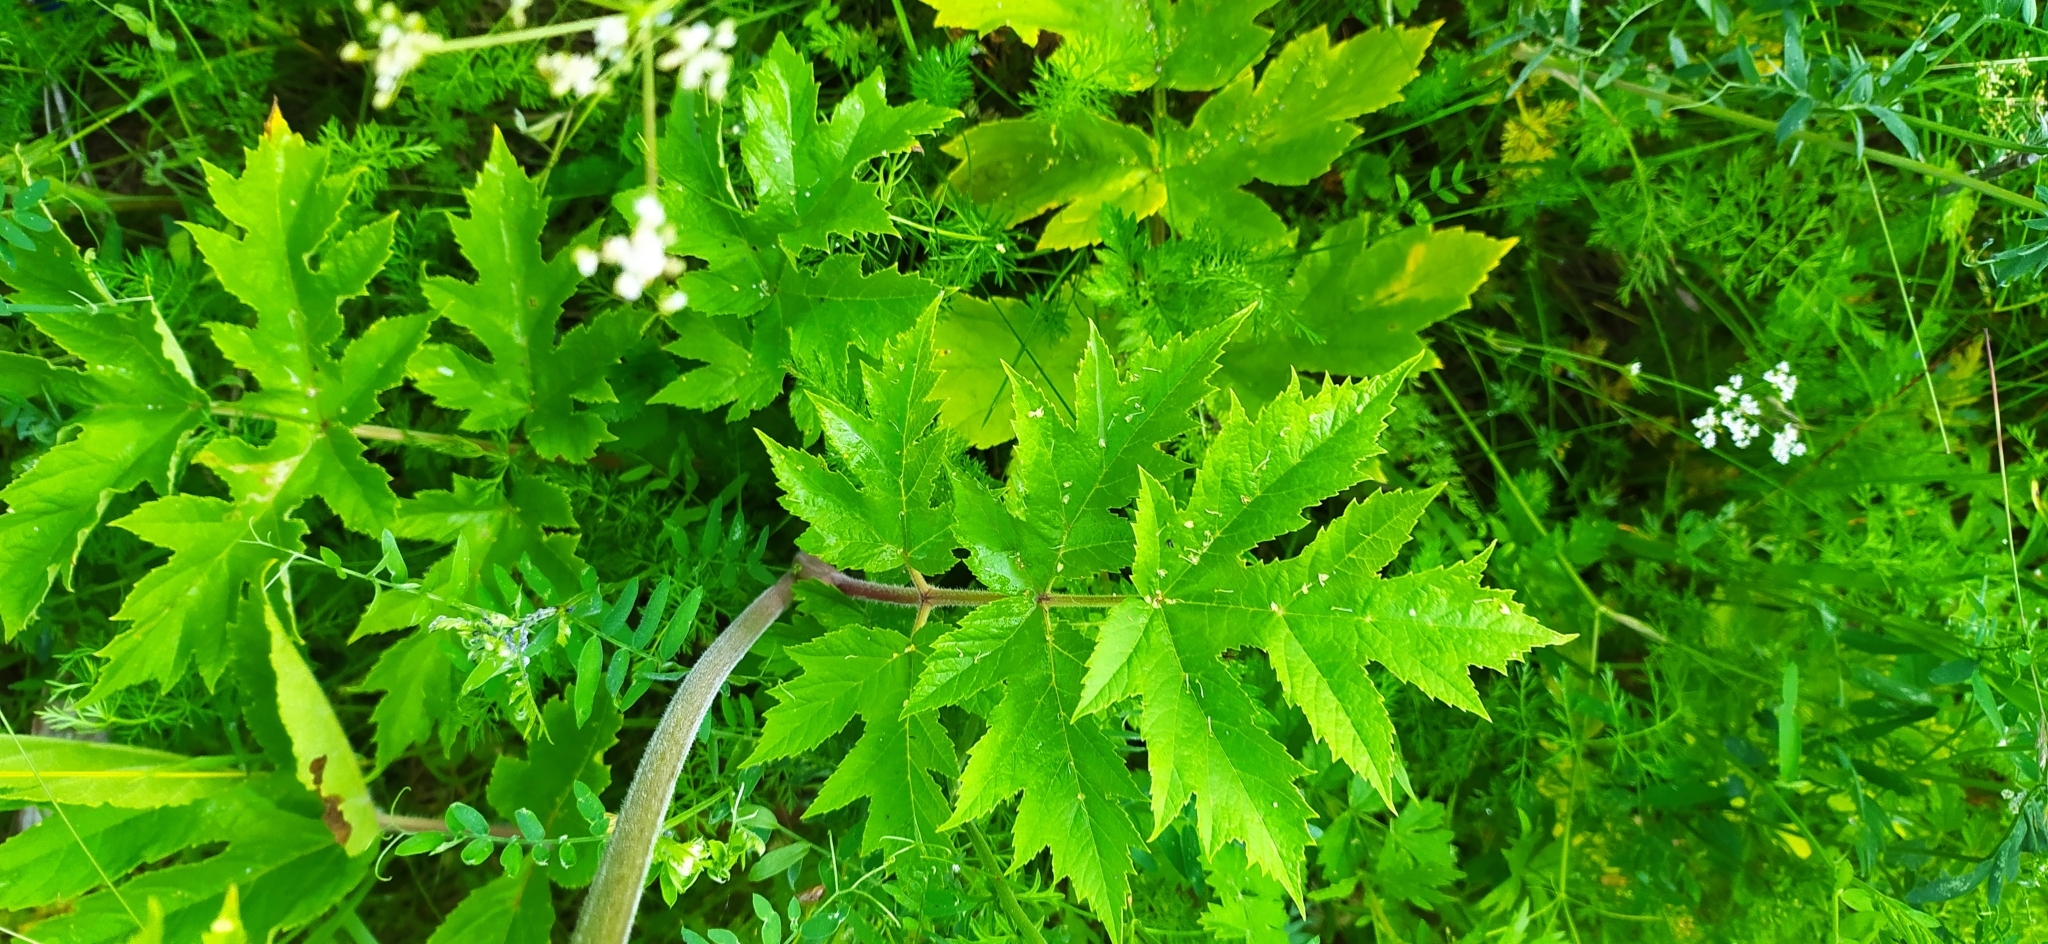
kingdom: Plantae
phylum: Tracheophyta
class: Magnoliopsida
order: Apiales
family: Apiaceae
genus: Heracleum
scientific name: Heracleum sphondylium
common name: Hogweed
